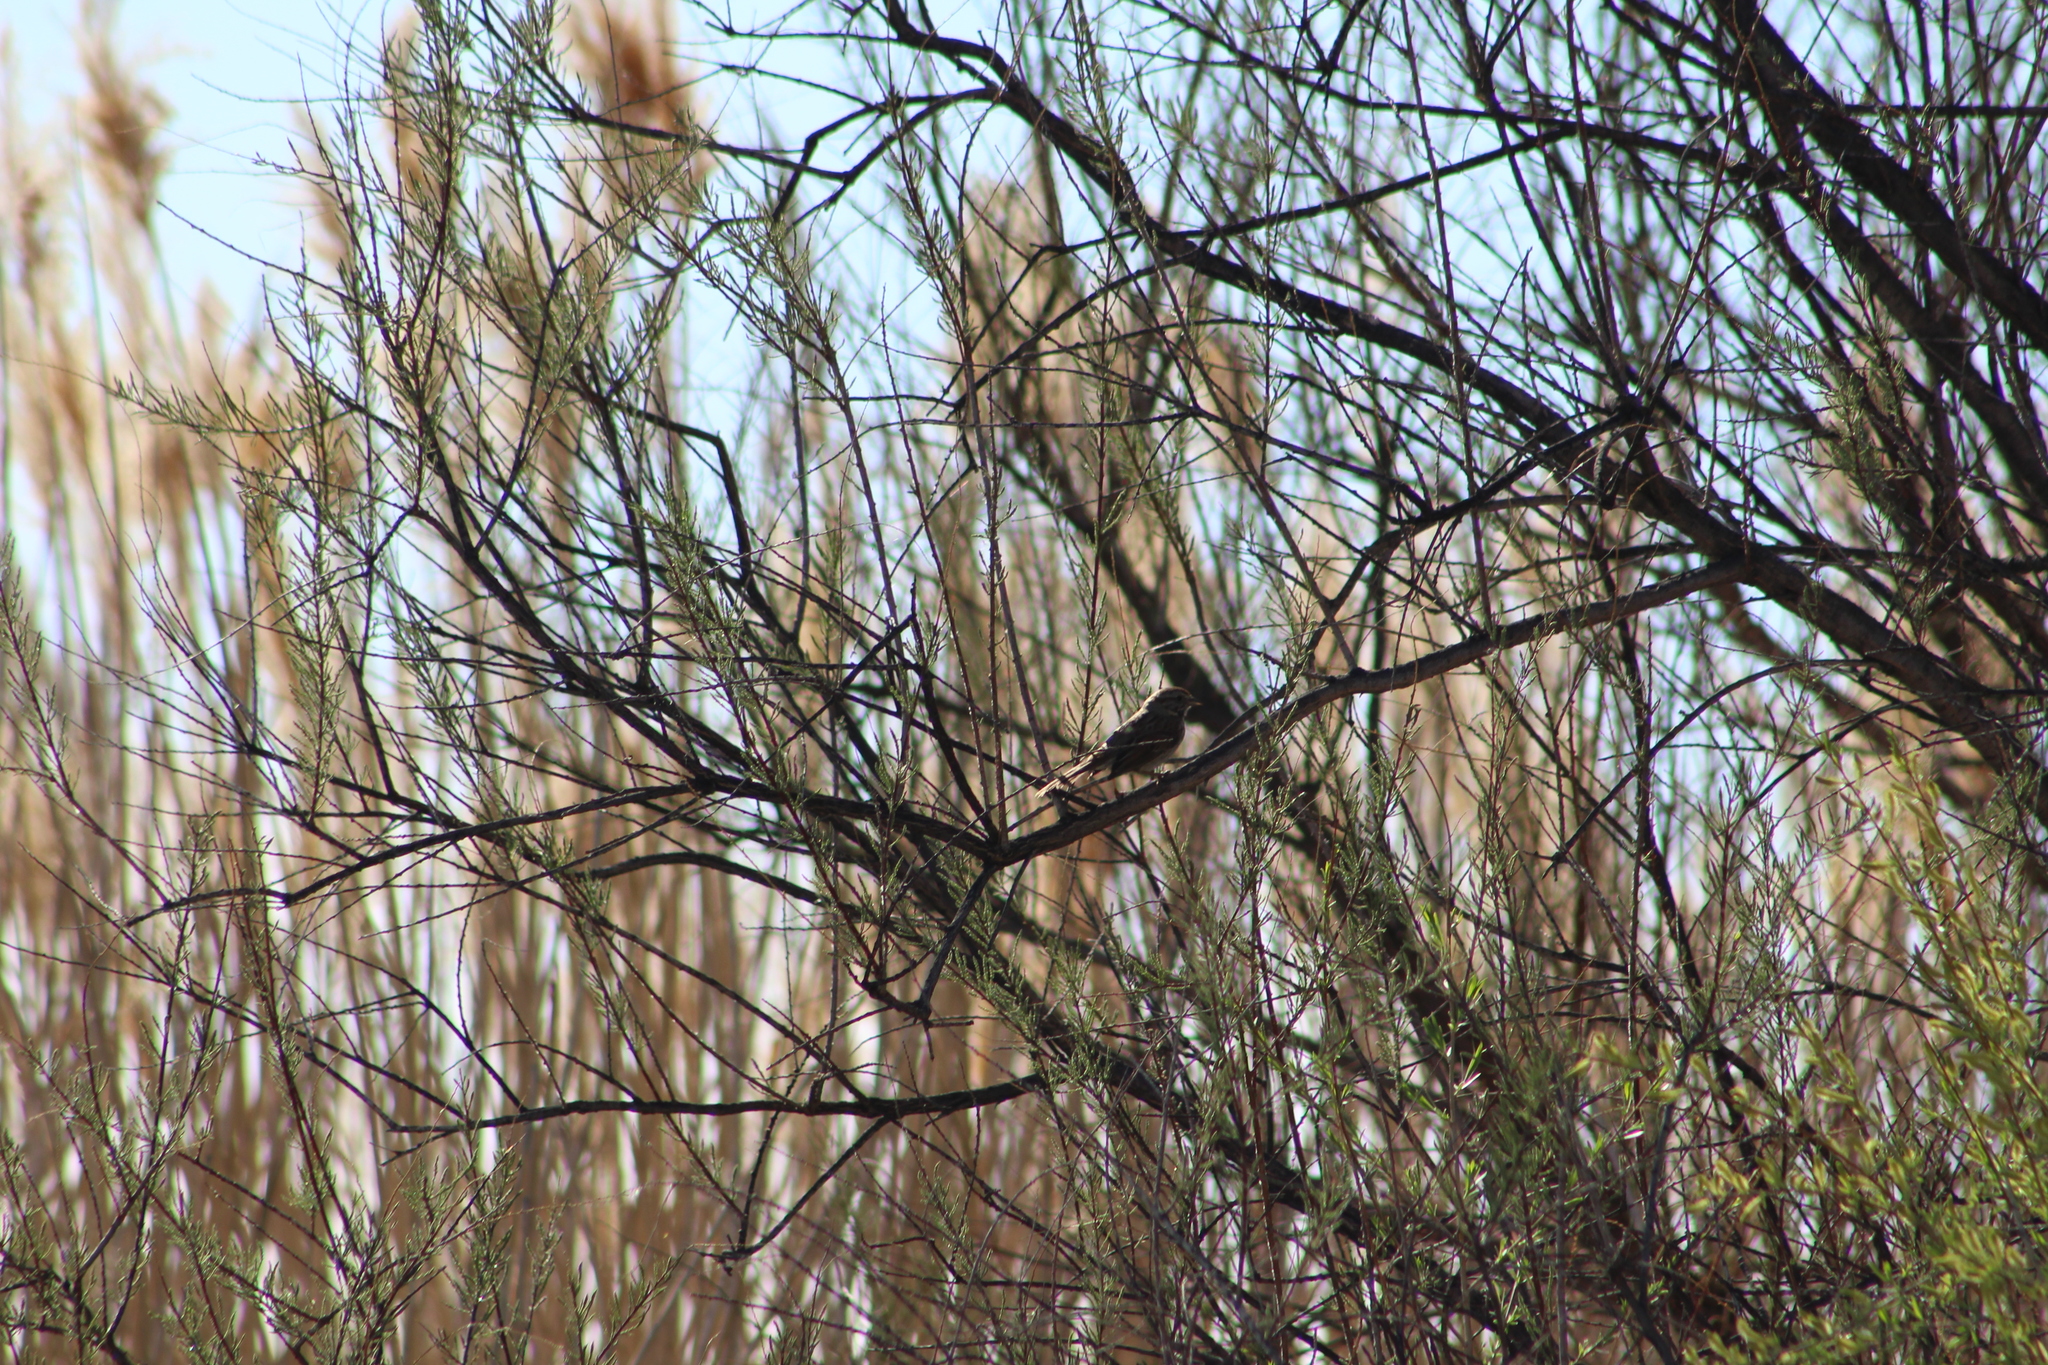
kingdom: Animalia
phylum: Chordata
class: Aves
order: Passeriformes
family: Passerellidae
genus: Melospiza
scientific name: Melospiza melodia
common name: Song sparrow
